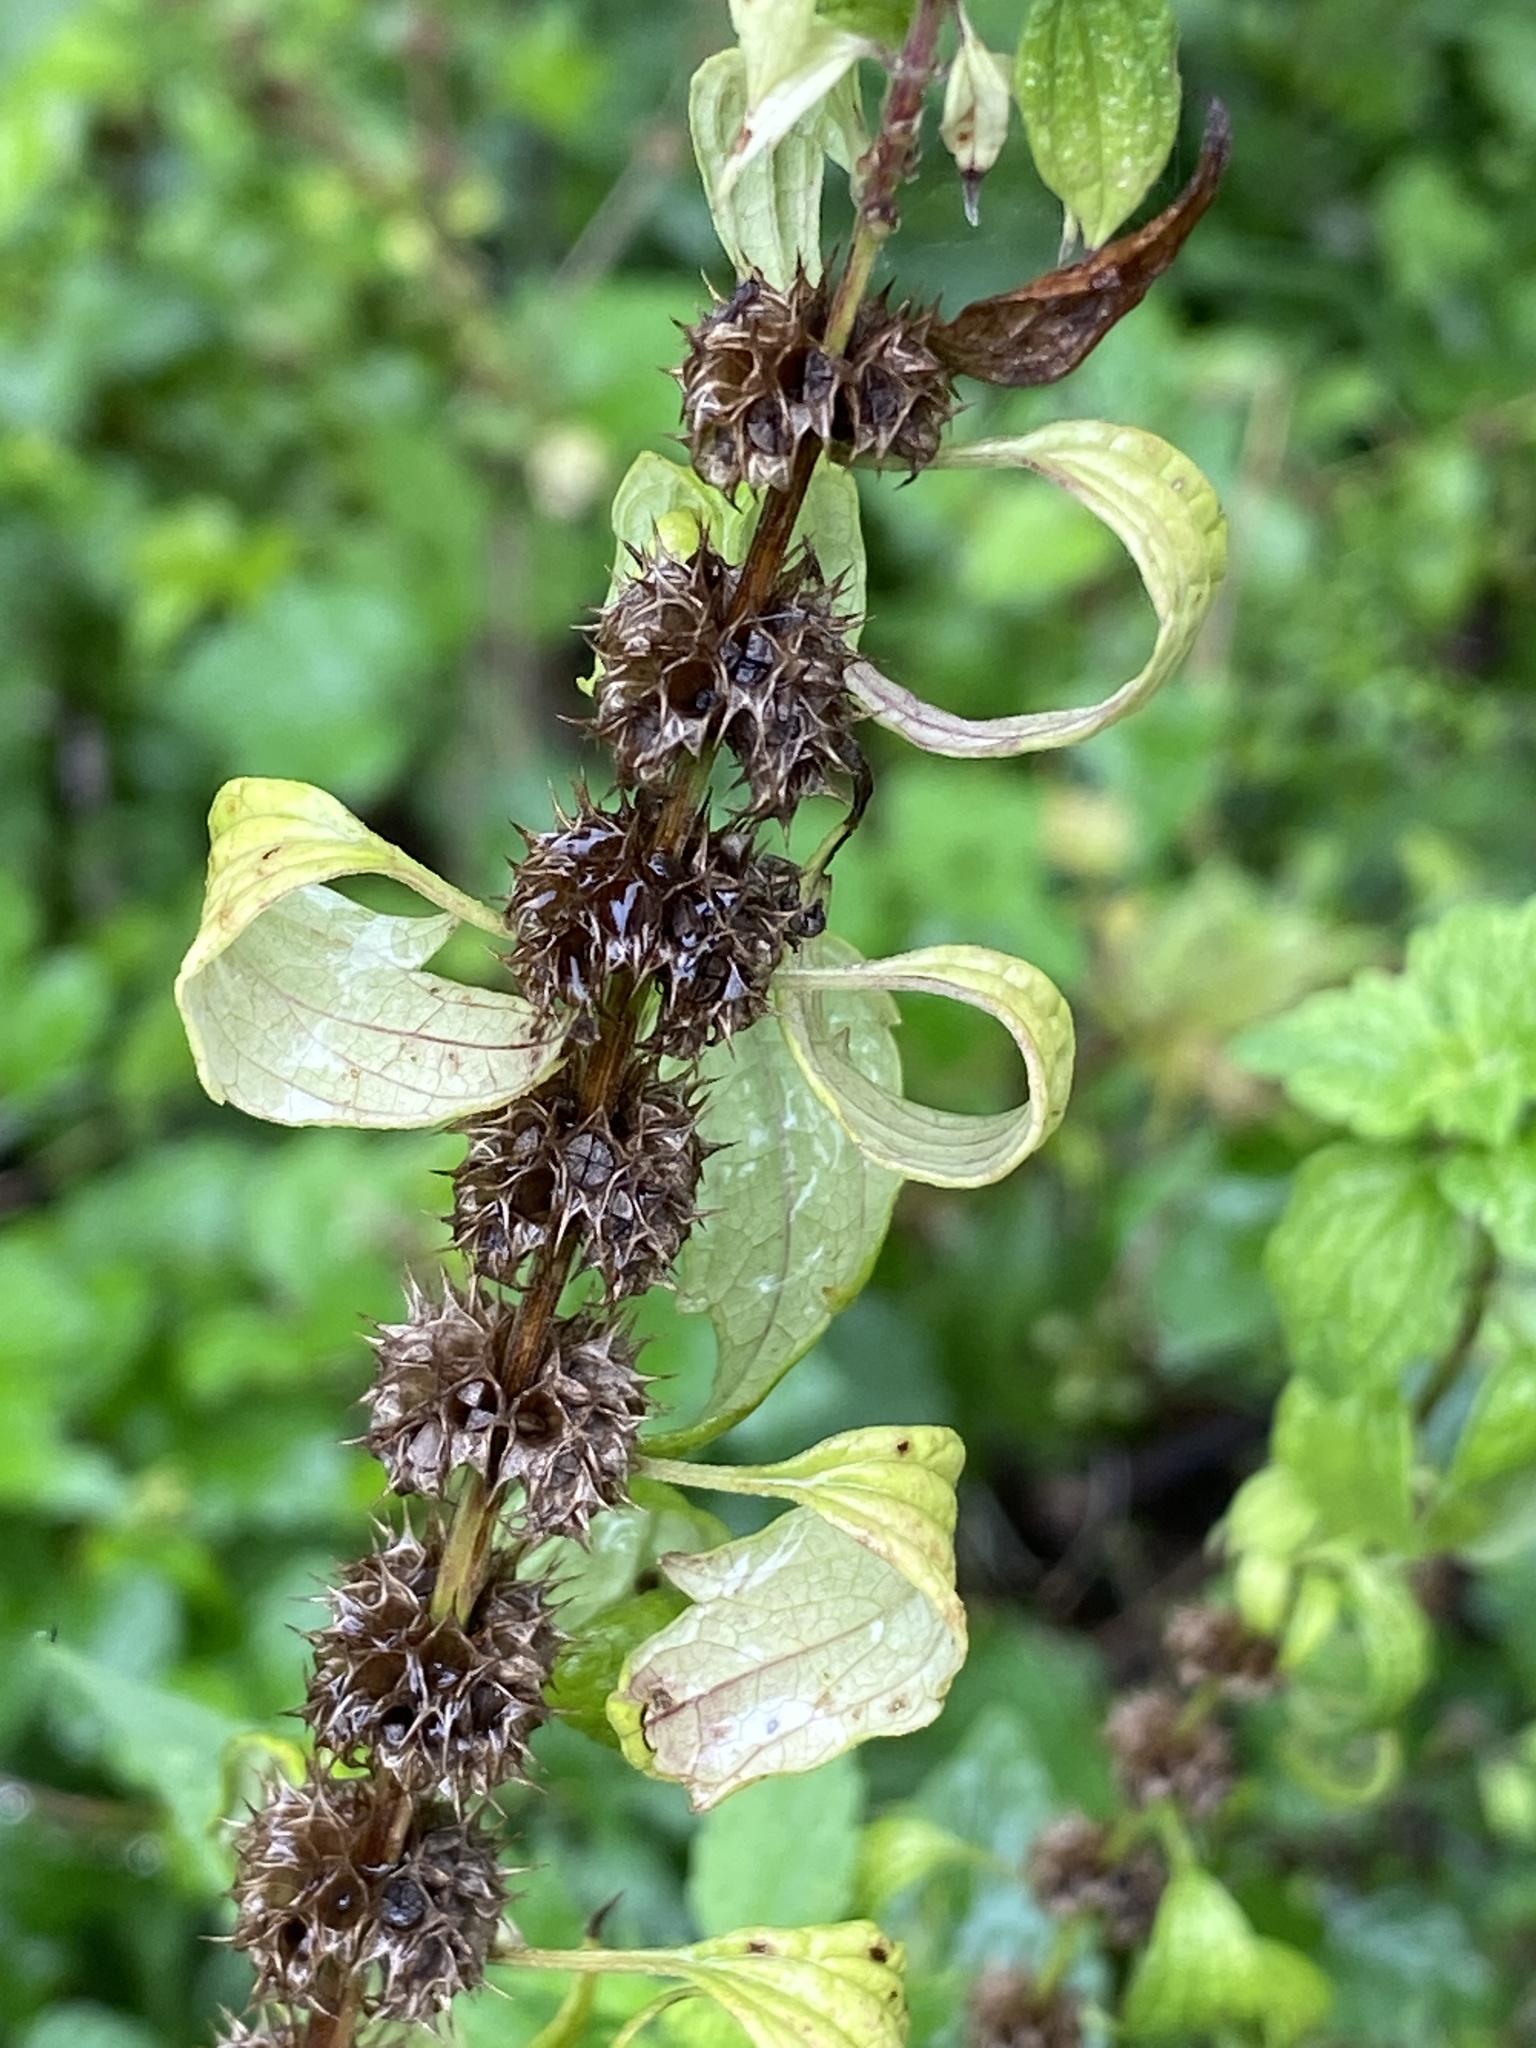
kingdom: Plantae
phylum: Tracheophyta
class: Magnoliopsida
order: Lamiales
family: Lamiaceae
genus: Leonurus
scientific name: Leonurus cardiaca
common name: Motherwort
